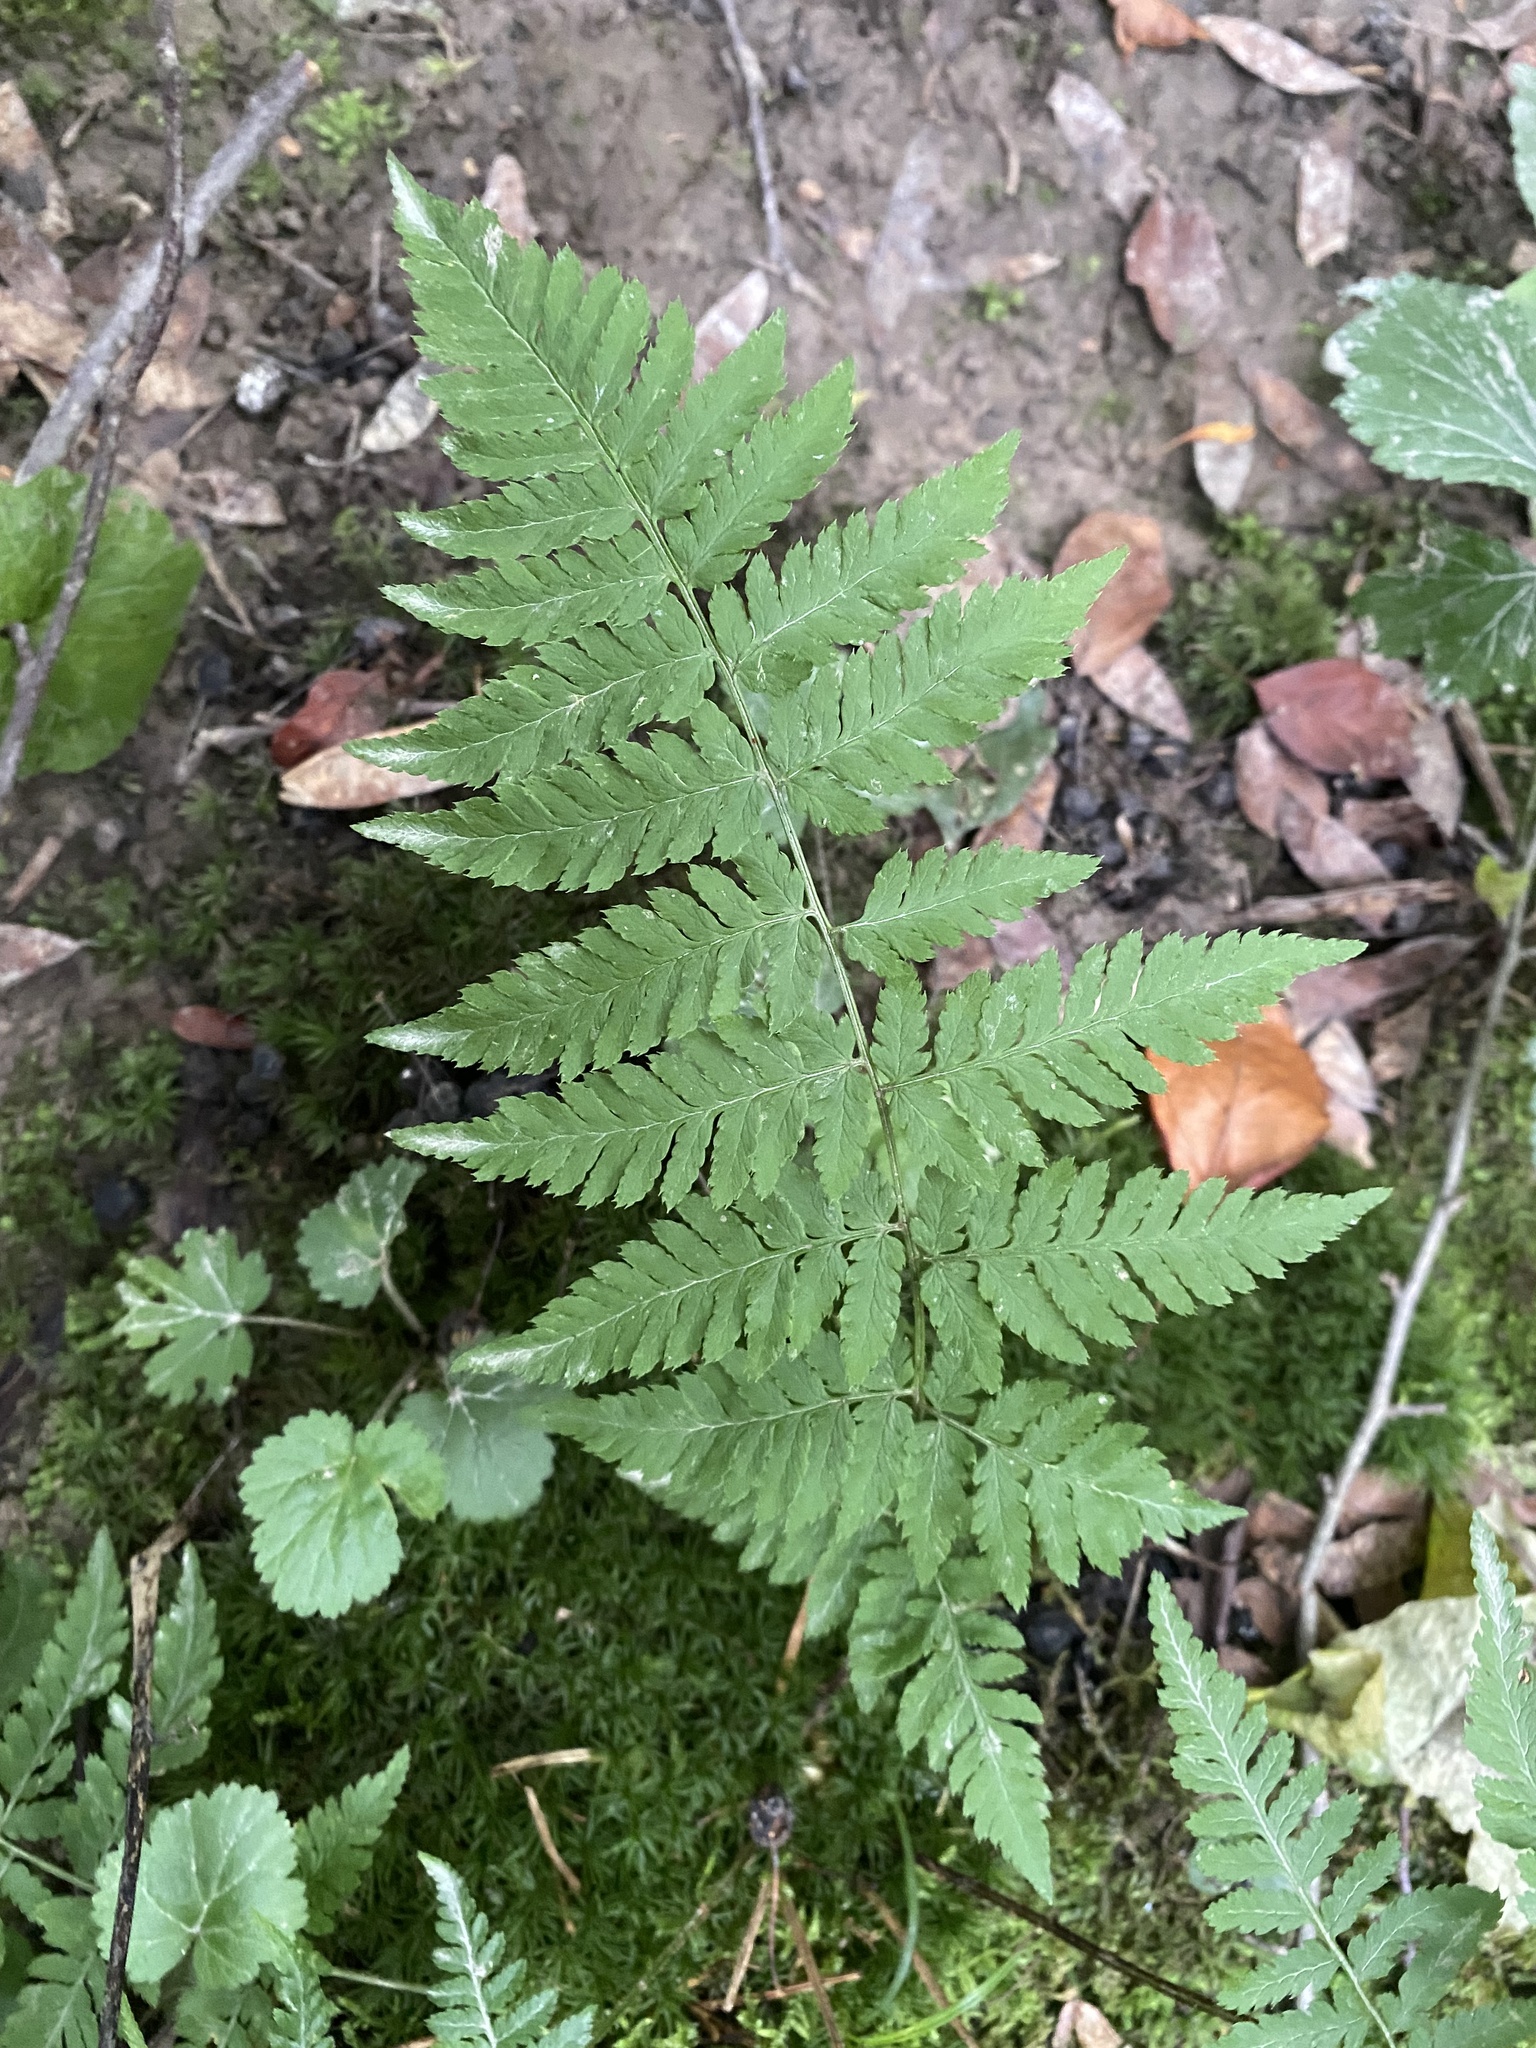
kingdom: Plantae
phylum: Tracheophyta
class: Polypodiopsida
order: Polypodiales
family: Dryopteridaceae
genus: Dryopteris
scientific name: Dryopteris carthusiana
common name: Narrow buckler-fern
